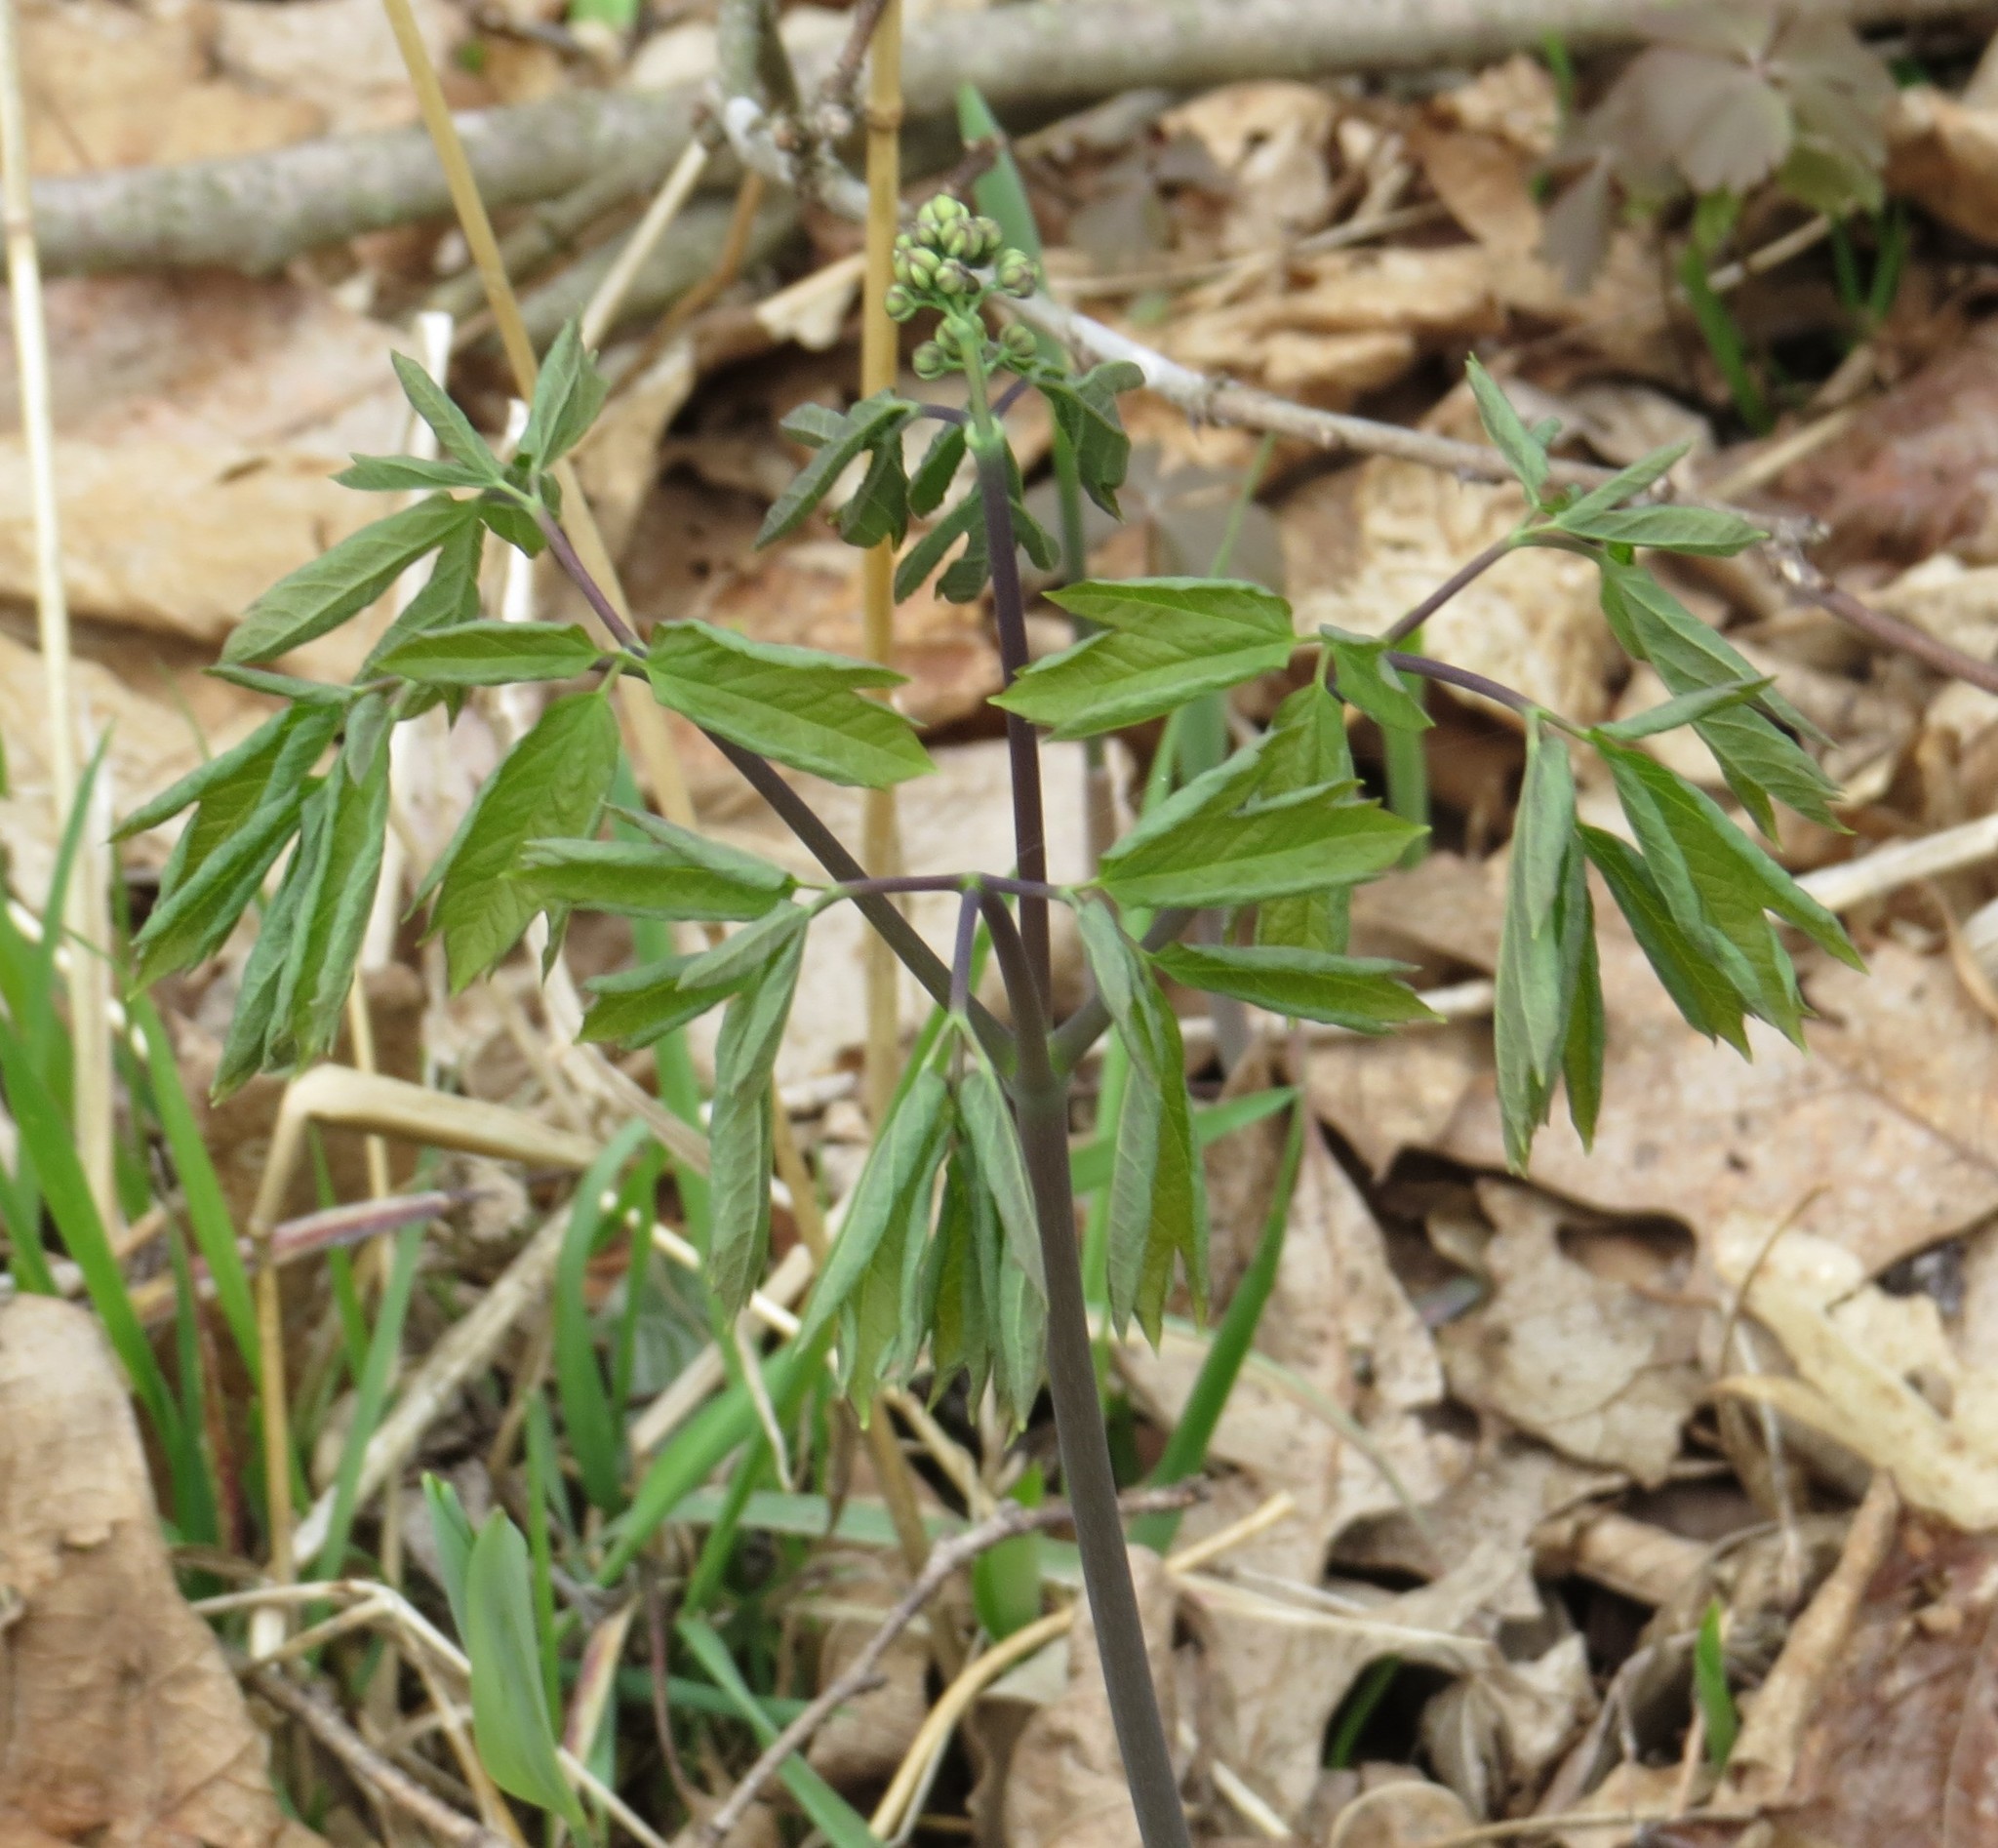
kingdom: Plantae
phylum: Tracheophyta
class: Magnoliopsida
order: Ranunculales
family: Berberidaceae
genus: Caulophyllum
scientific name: Caulophyllum thalictroides
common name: Blue cohosh
